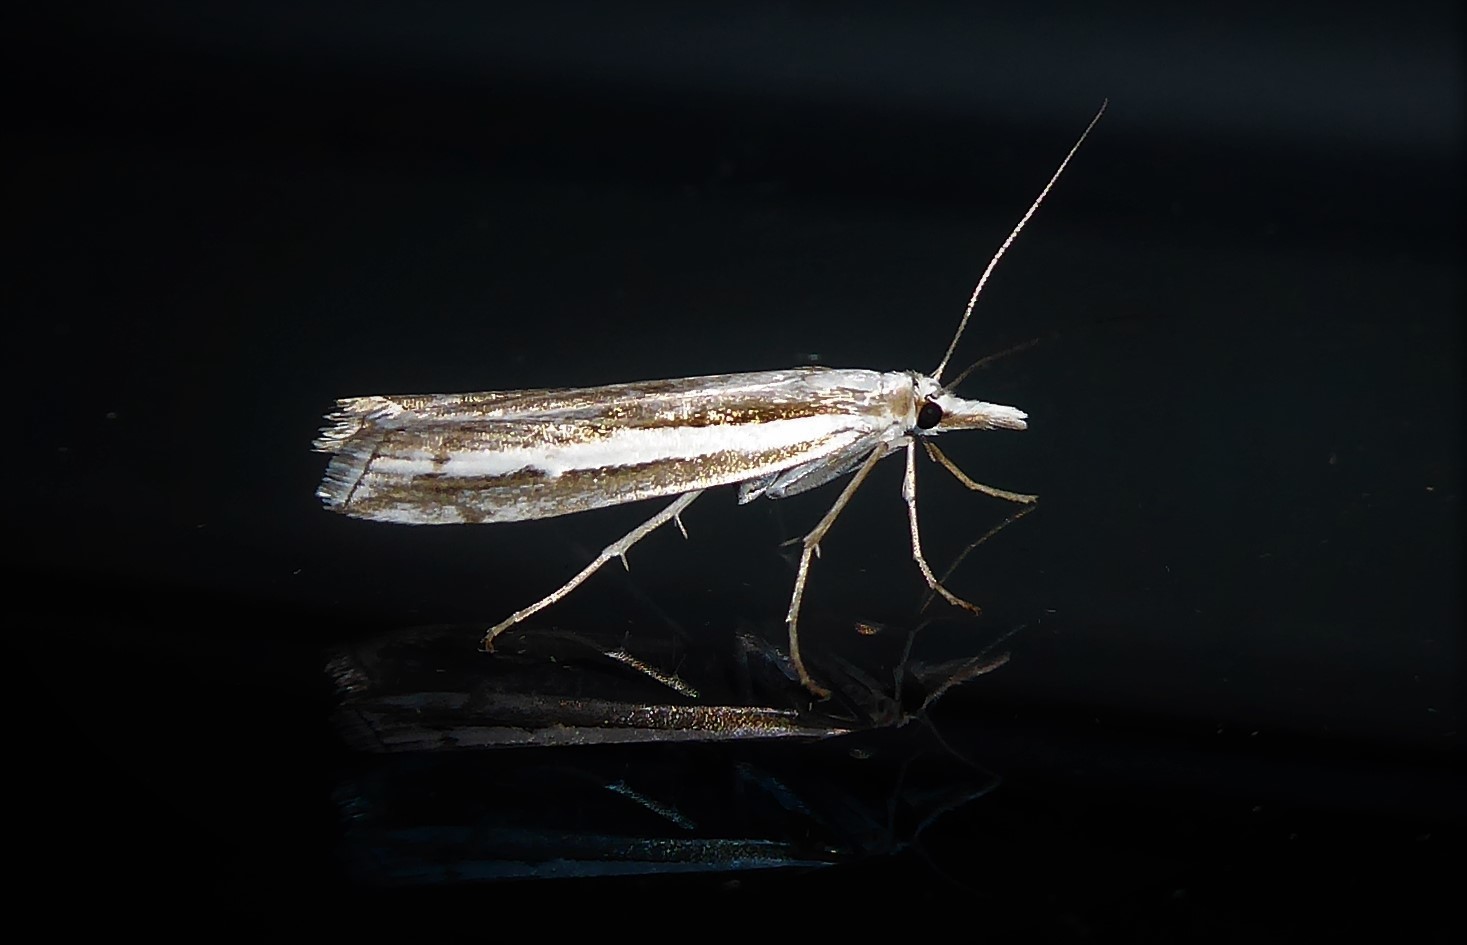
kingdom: Animalia
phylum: Arthropoda
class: Insecta
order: Lepidoptera
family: Crambidae
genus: Orocrambus
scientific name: Orocrambus vittellus
